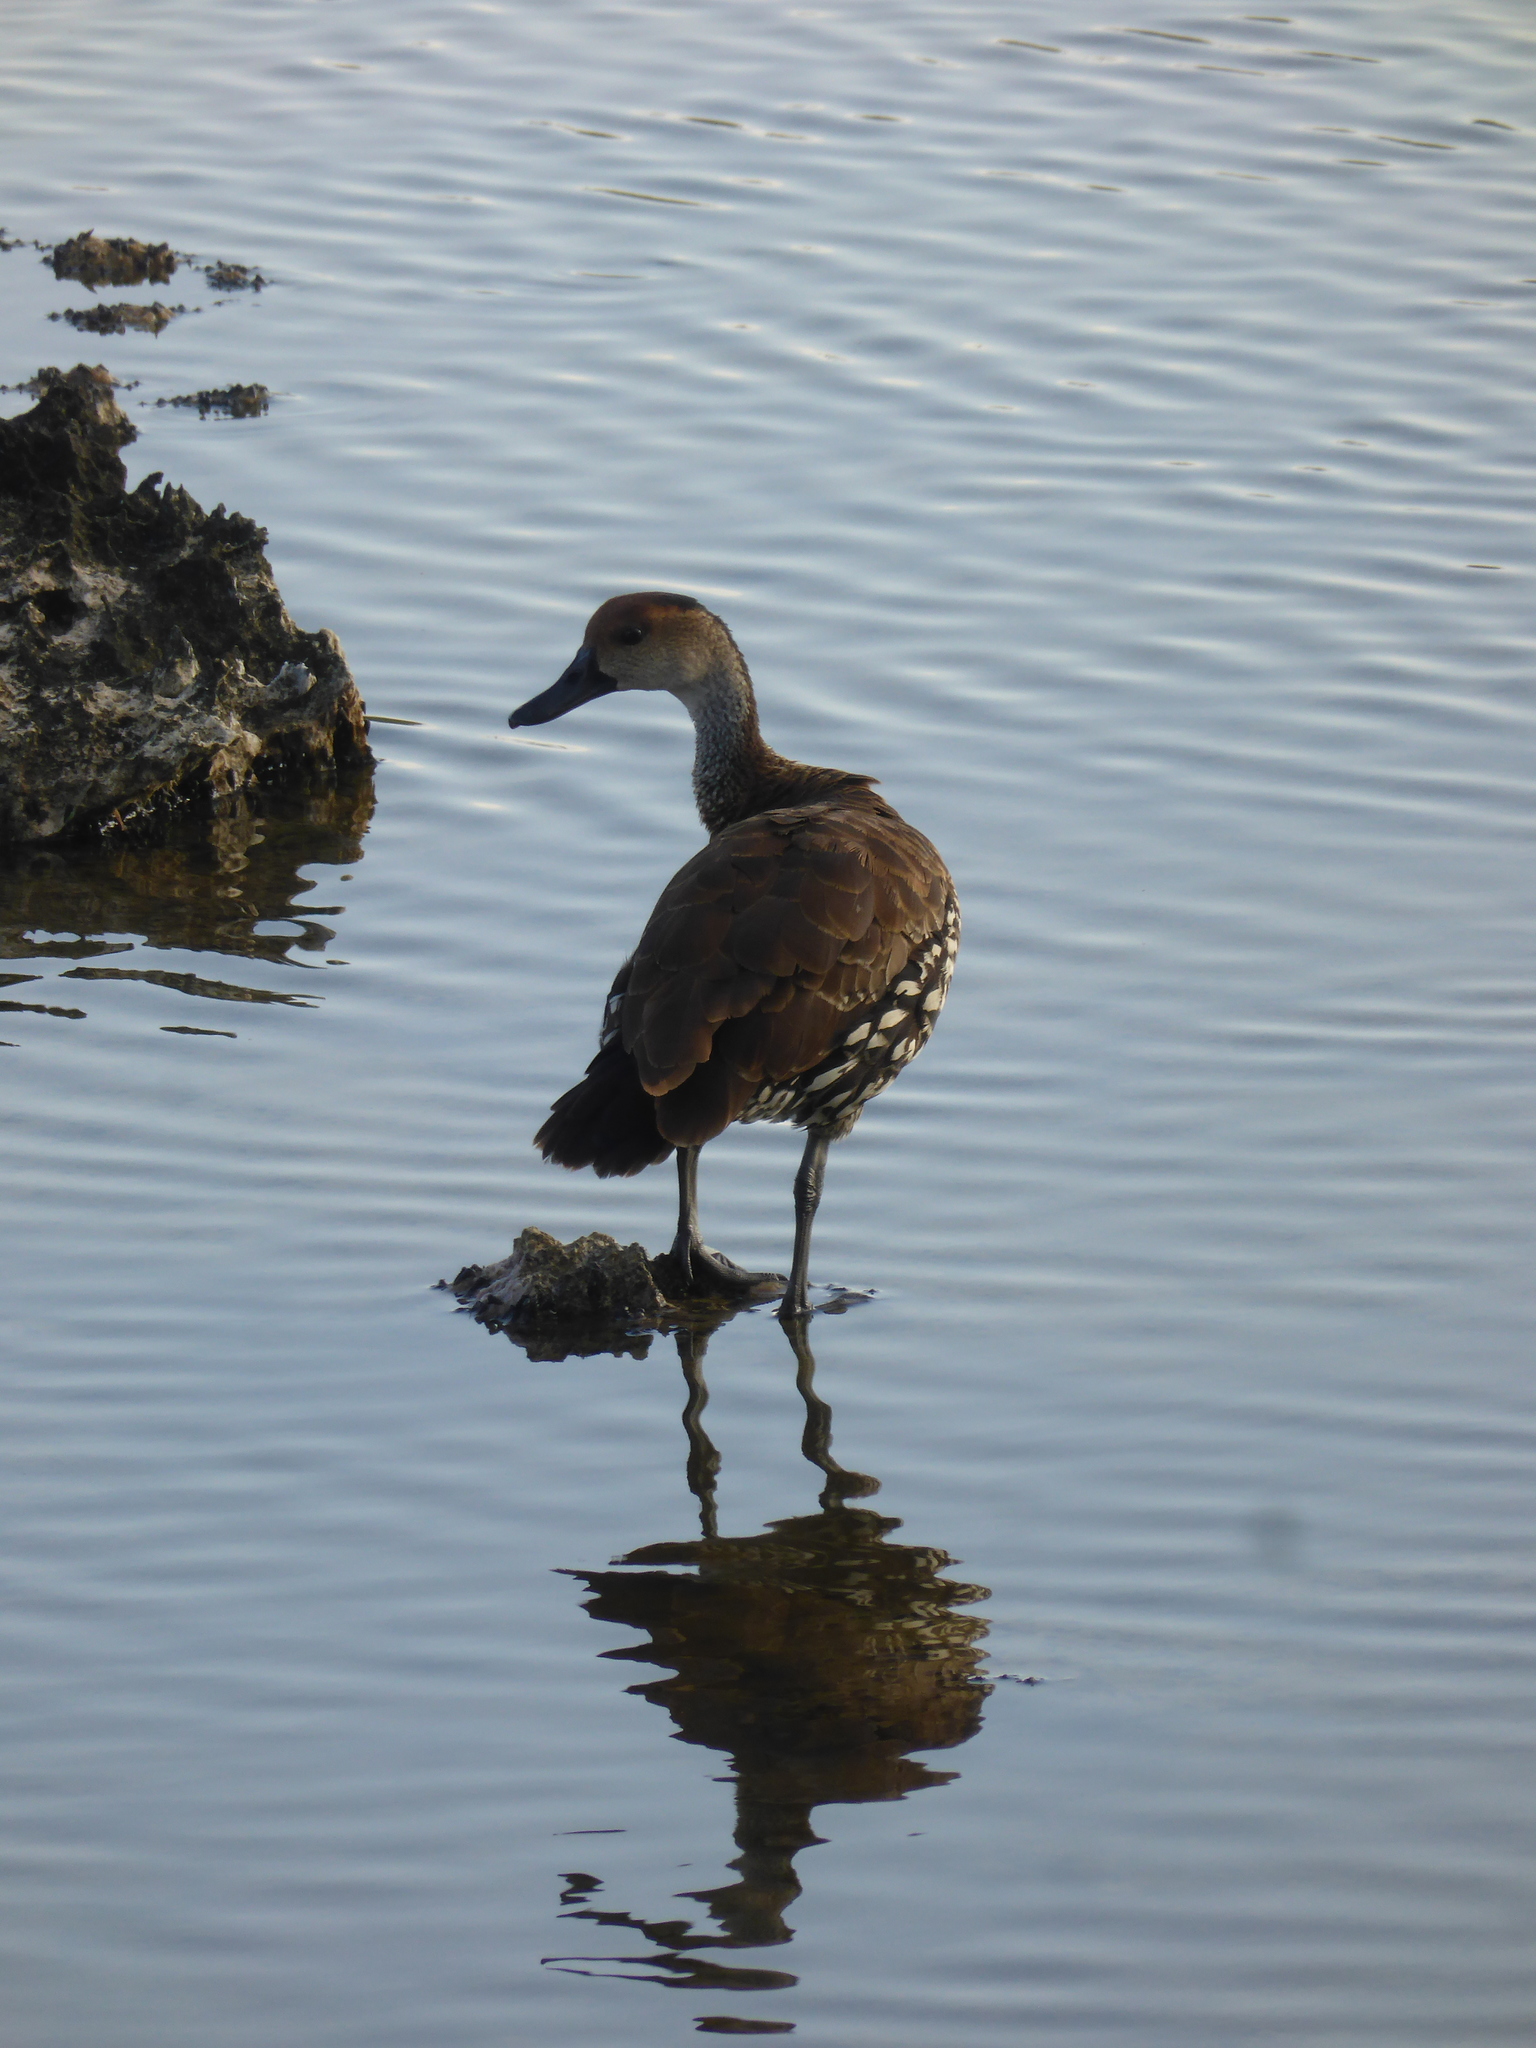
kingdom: Animalia
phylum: Chordata
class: Aves
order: Anseriformes
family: Anatidae
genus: Dendrocygna
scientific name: Dendrocygna arborea
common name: West indian whistling duck
